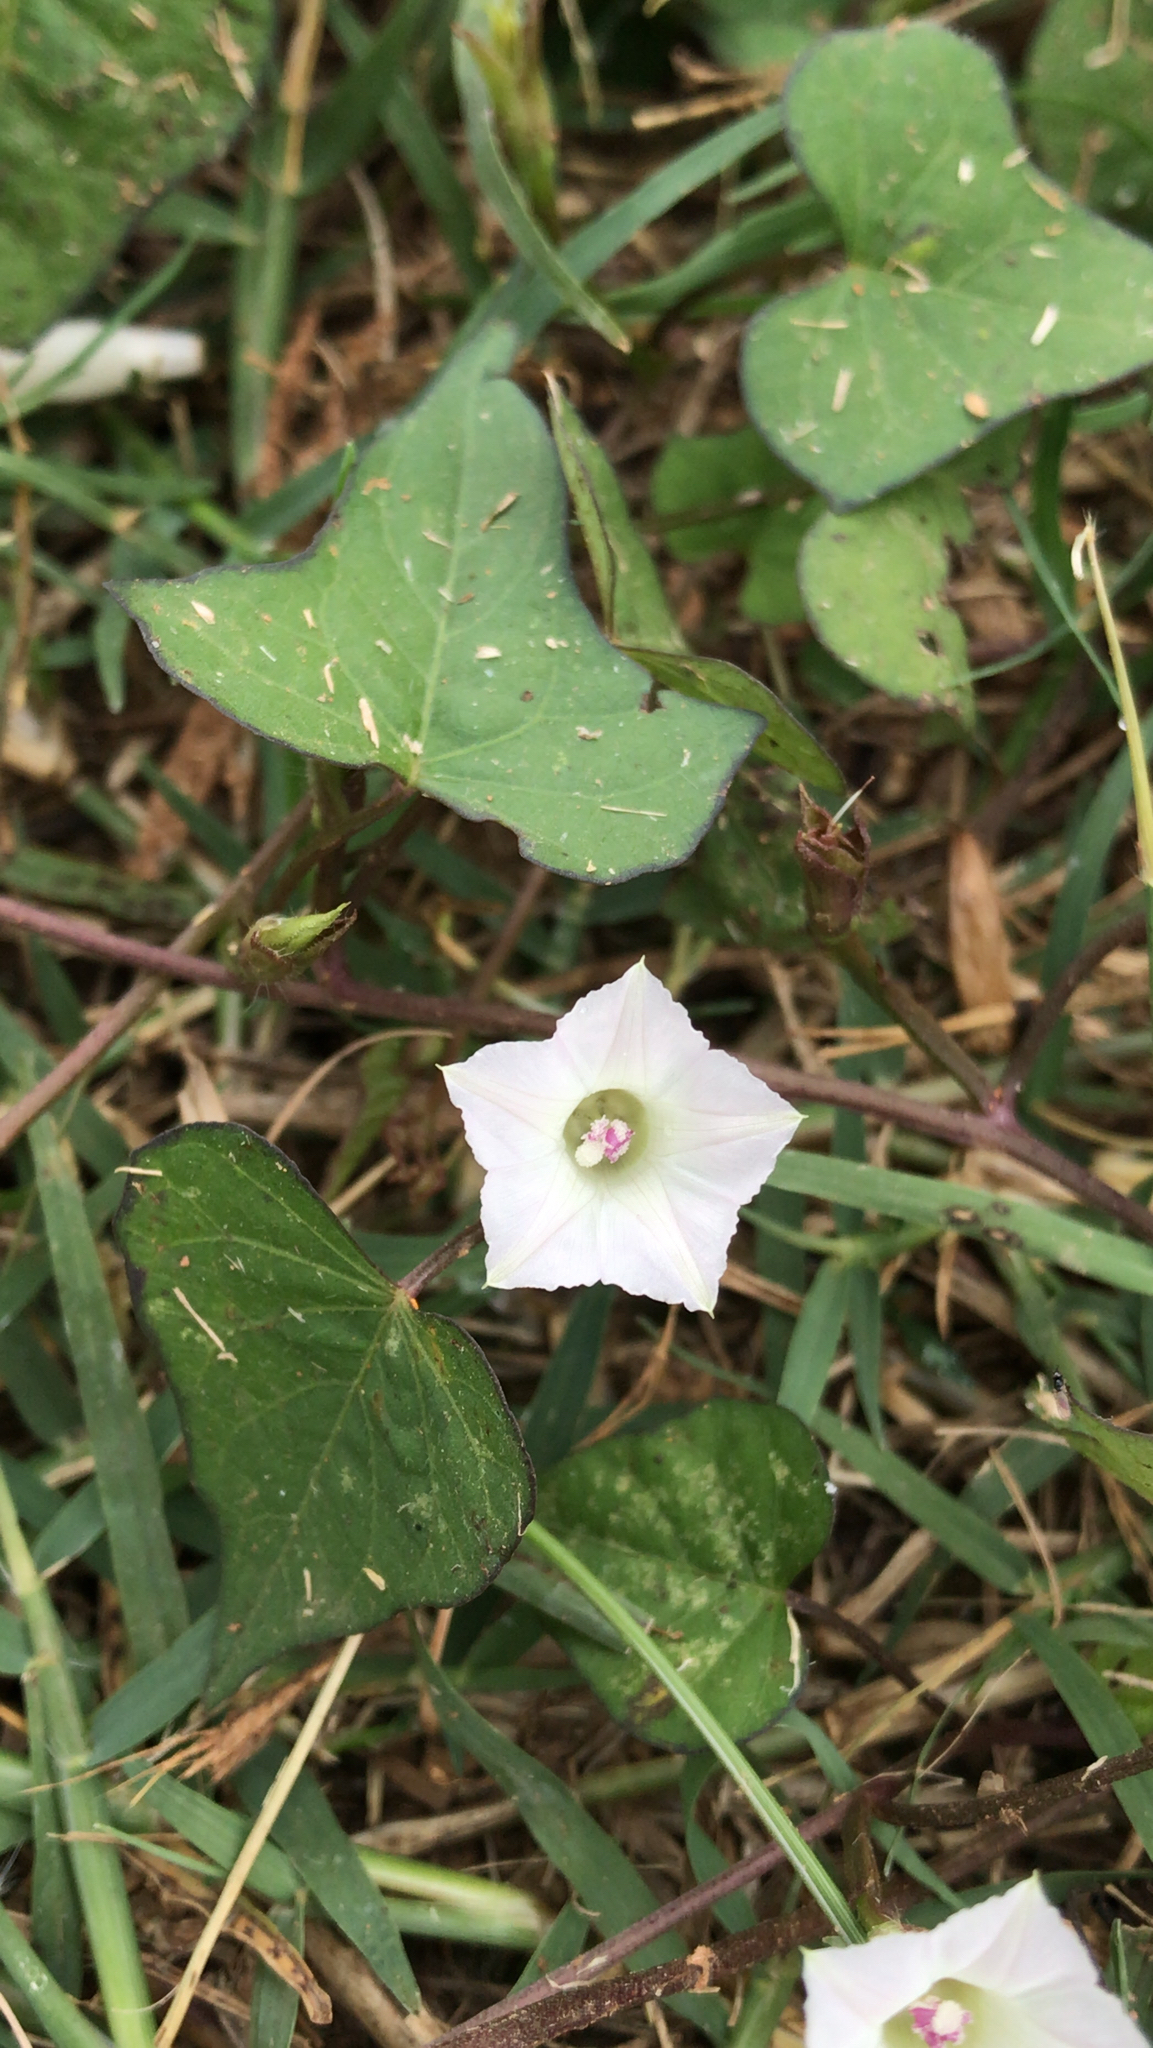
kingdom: Plantae
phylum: Tracheophyta
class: Magnoliopsida
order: Solanales
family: Convolvulaceae
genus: Ipomoea
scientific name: Ipomoea lacunosa
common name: White morning-glory
